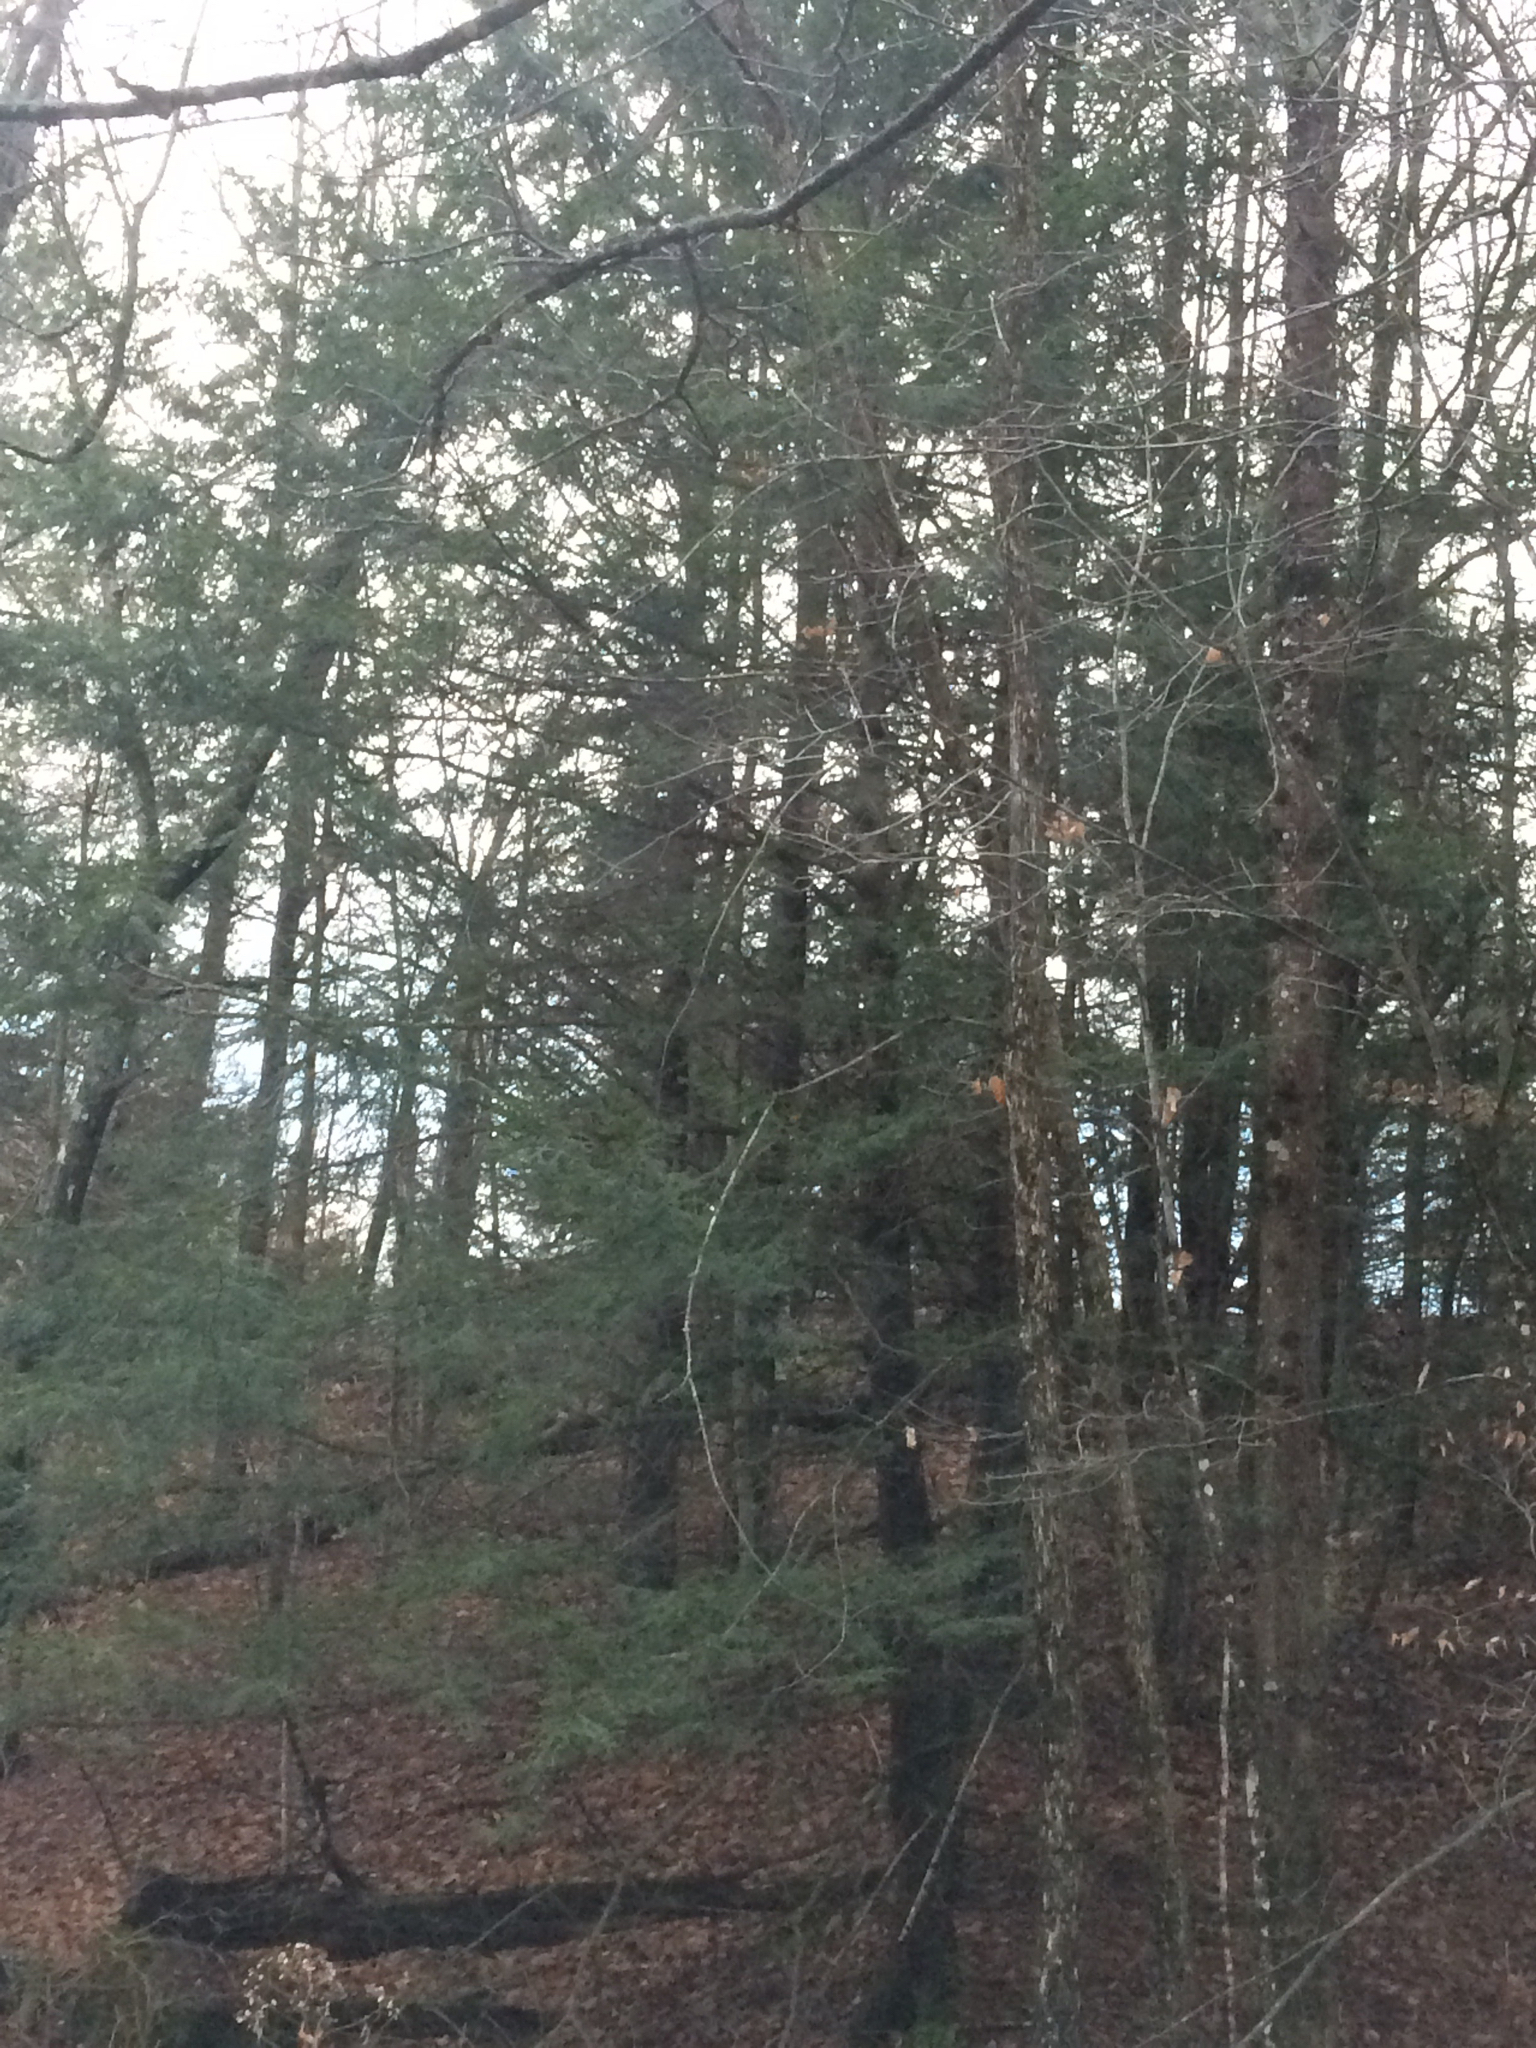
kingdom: Plantae
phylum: Tracheophyta
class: Pinopsida
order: Pinales
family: Pinaceae
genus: Tsuga
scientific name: Tsuga canadensis
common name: Eastern hemlock
